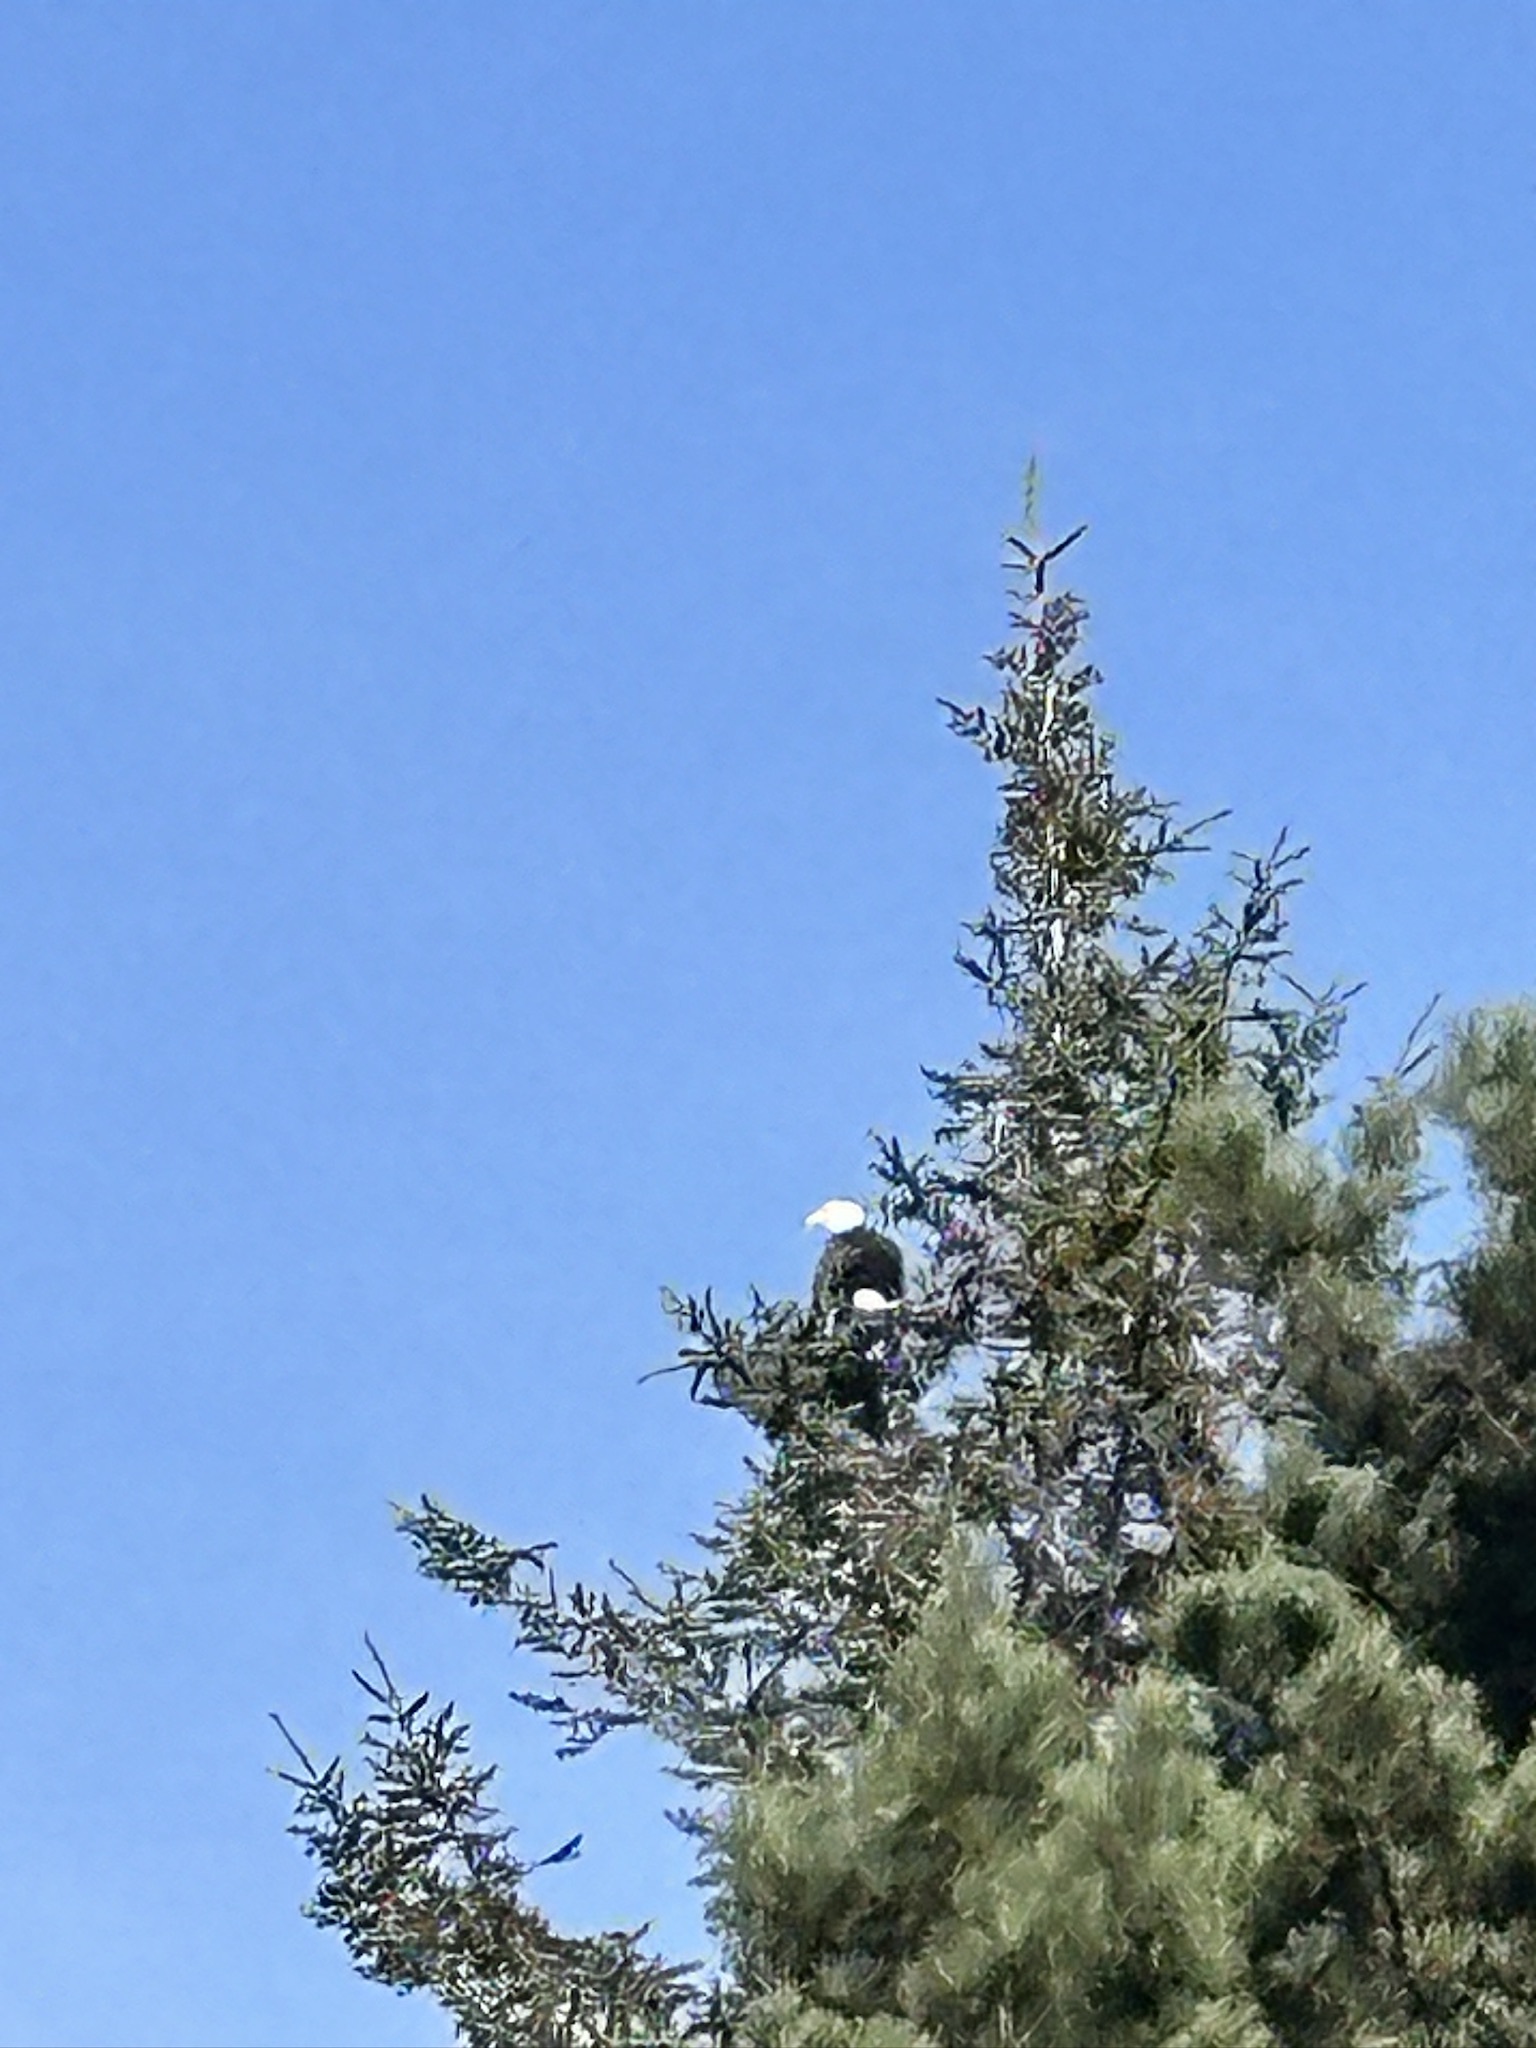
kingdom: Animalia
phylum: Chordata
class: Aves
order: Accipitriformes
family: Accipitridae
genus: Haliaeetus
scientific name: Haliaeetus leucocephalus
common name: Bald eagle
